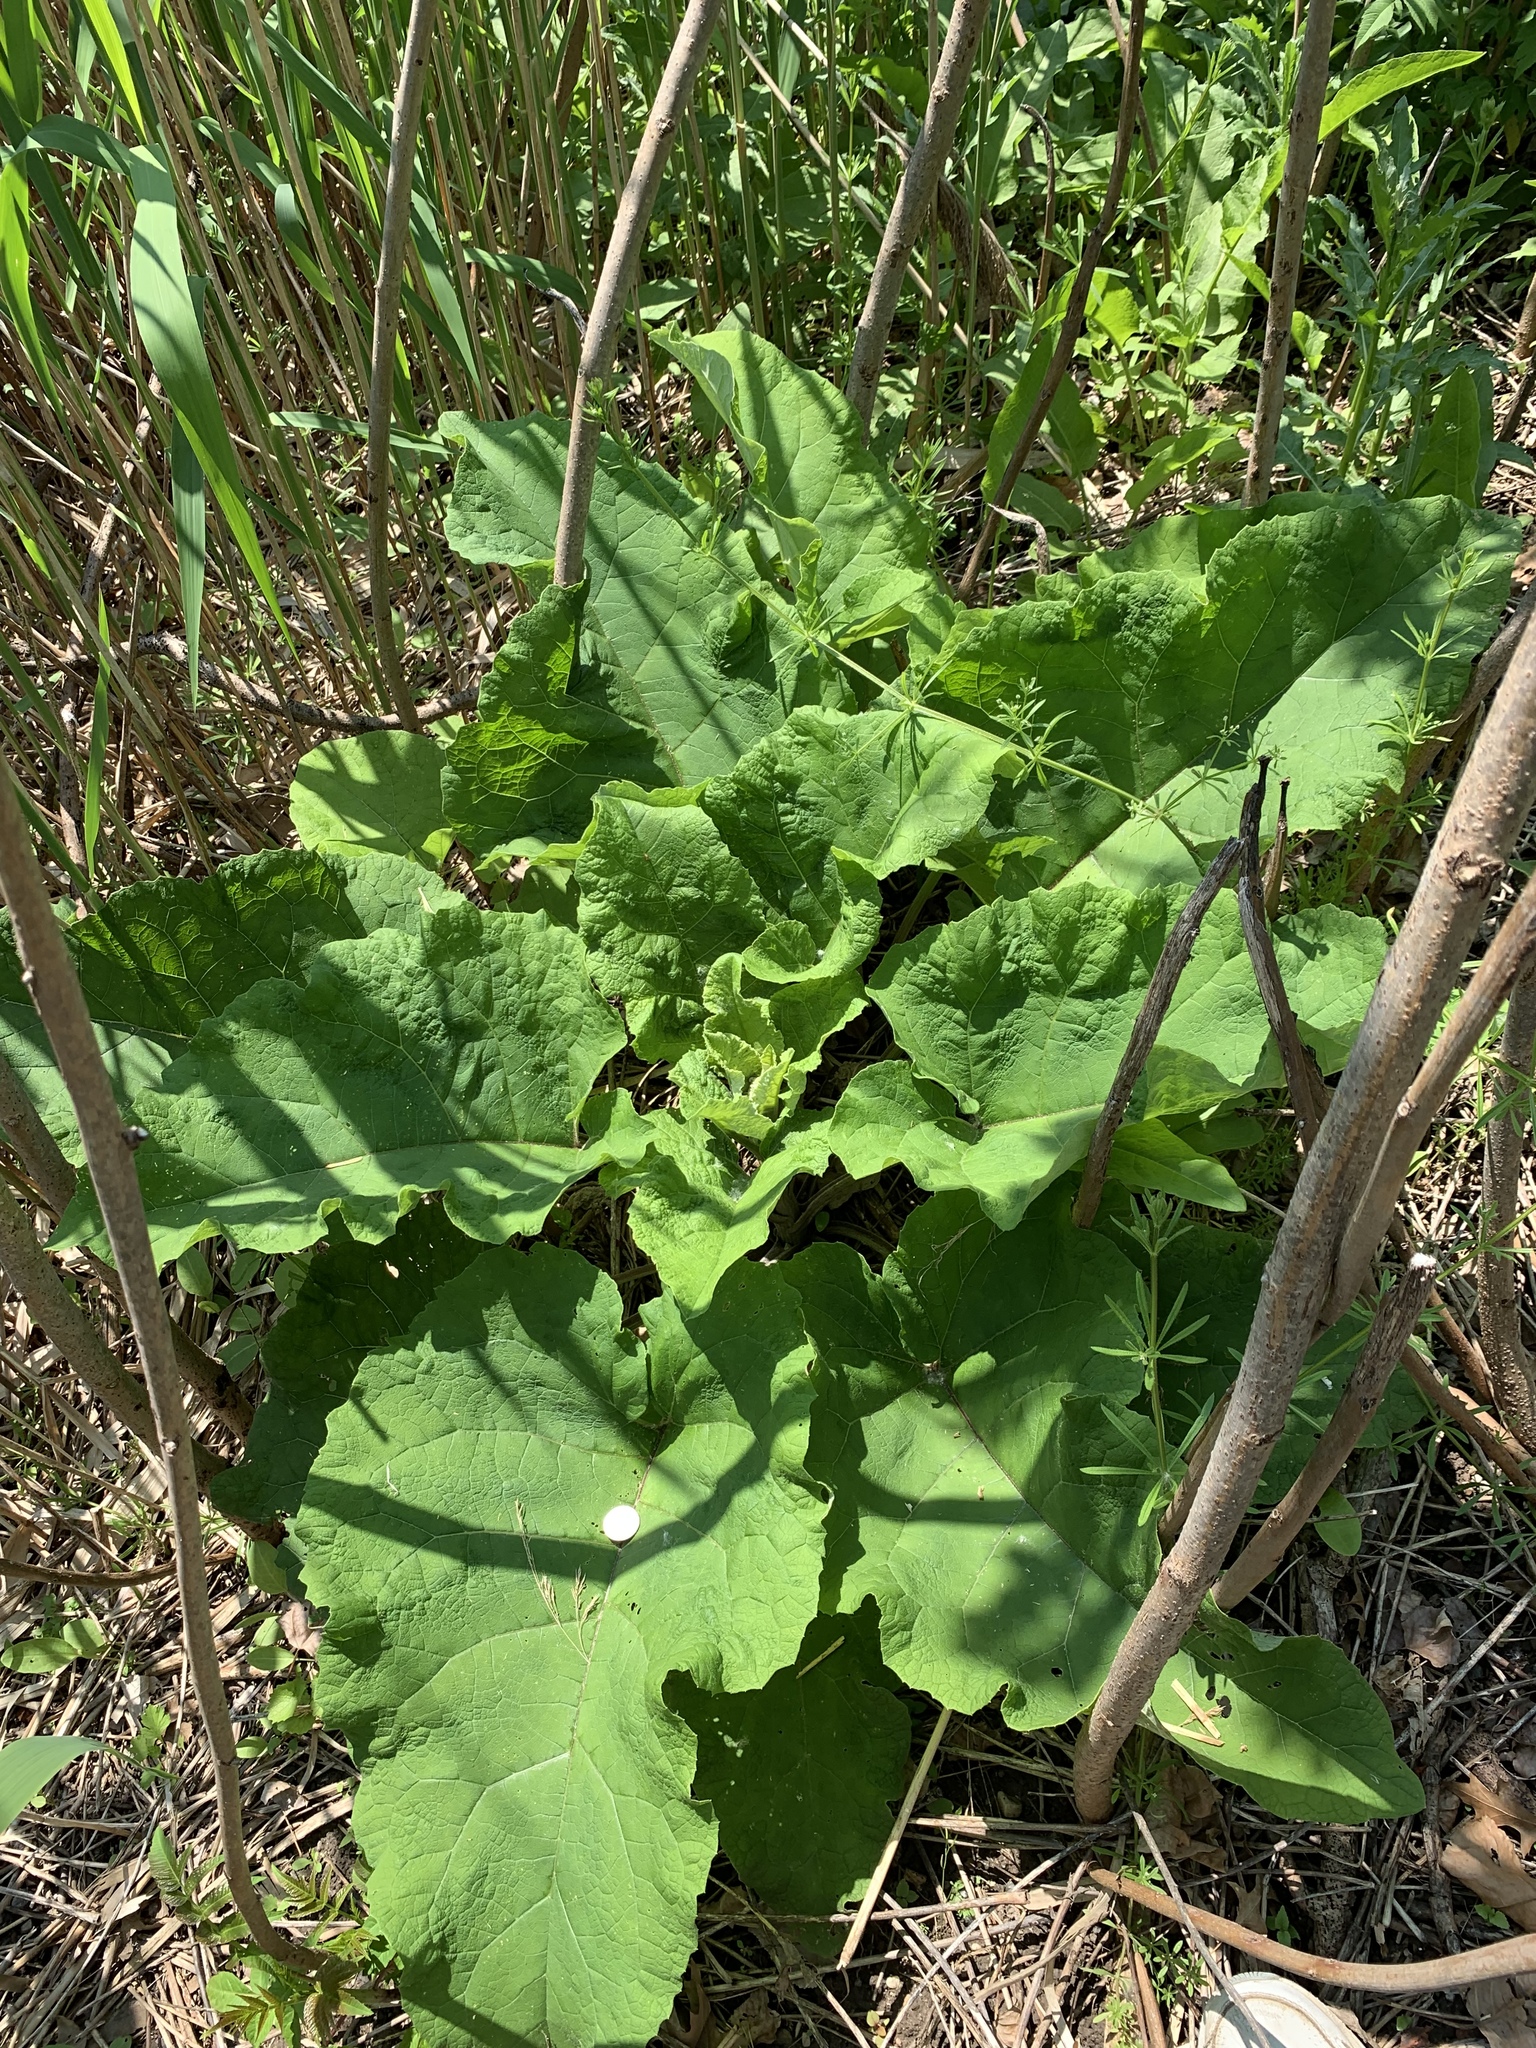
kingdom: Plantae
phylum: Tracheophyta
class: Magnoliopsida
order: Asterales
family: Asteraceae
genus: Arctium
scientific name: Arctium
